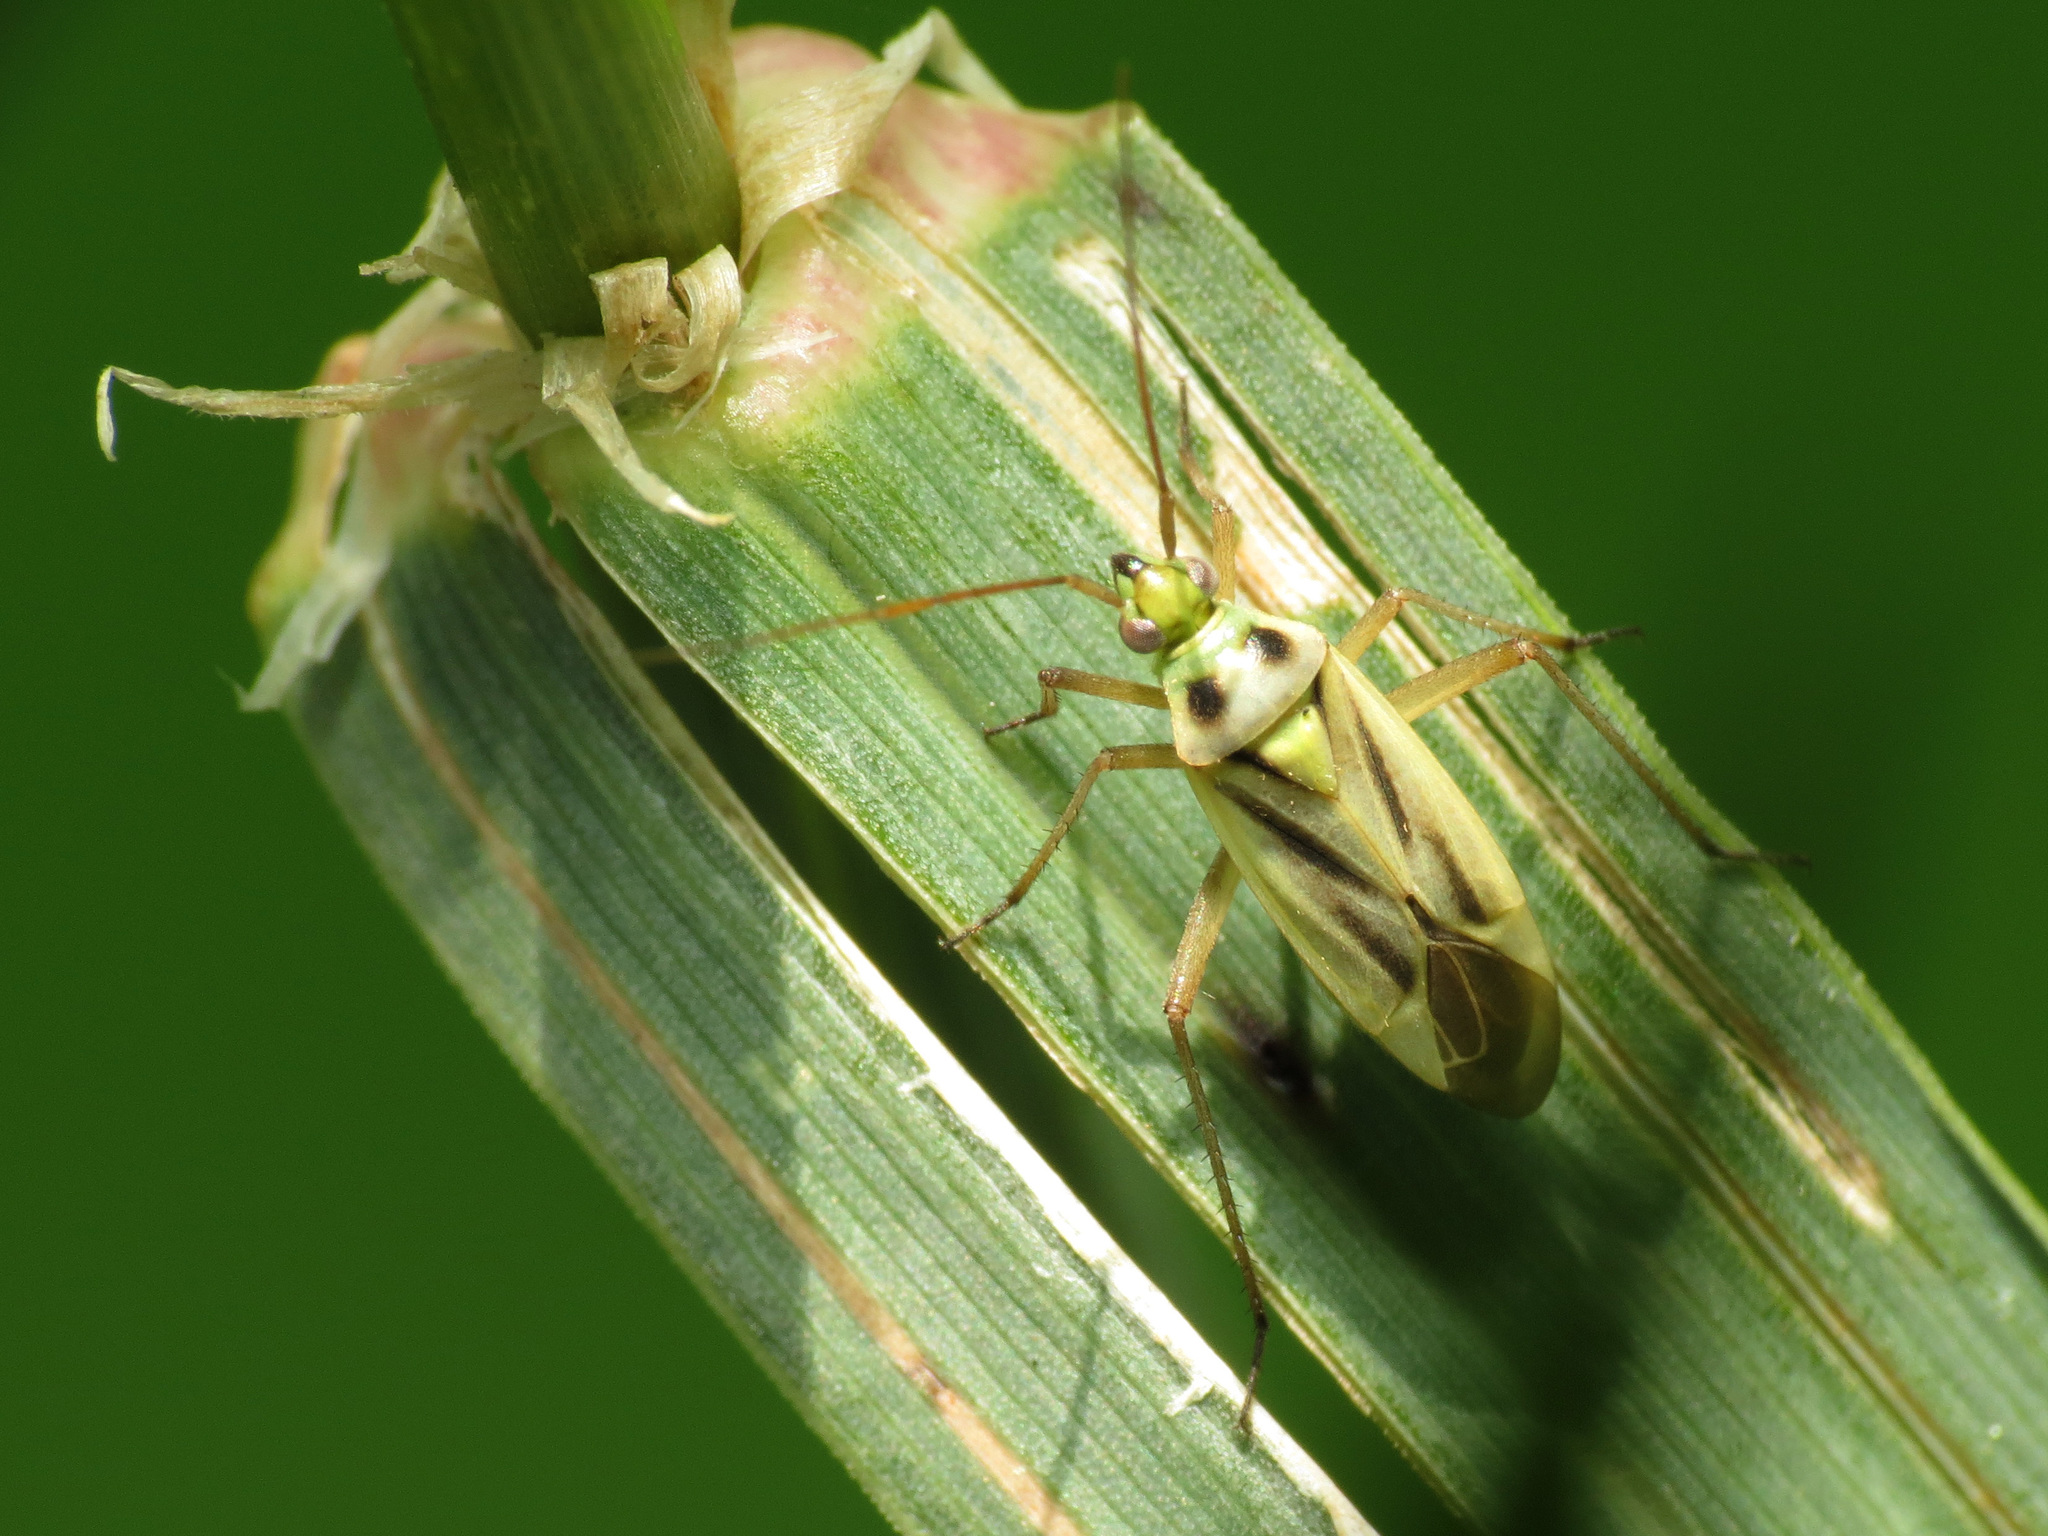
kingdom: Animalia
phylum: Arthropoda
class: Insecta
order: Hemiptera
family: Miridae
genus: Stenotus
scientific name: Stenotus binotatus
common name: Plant bug
